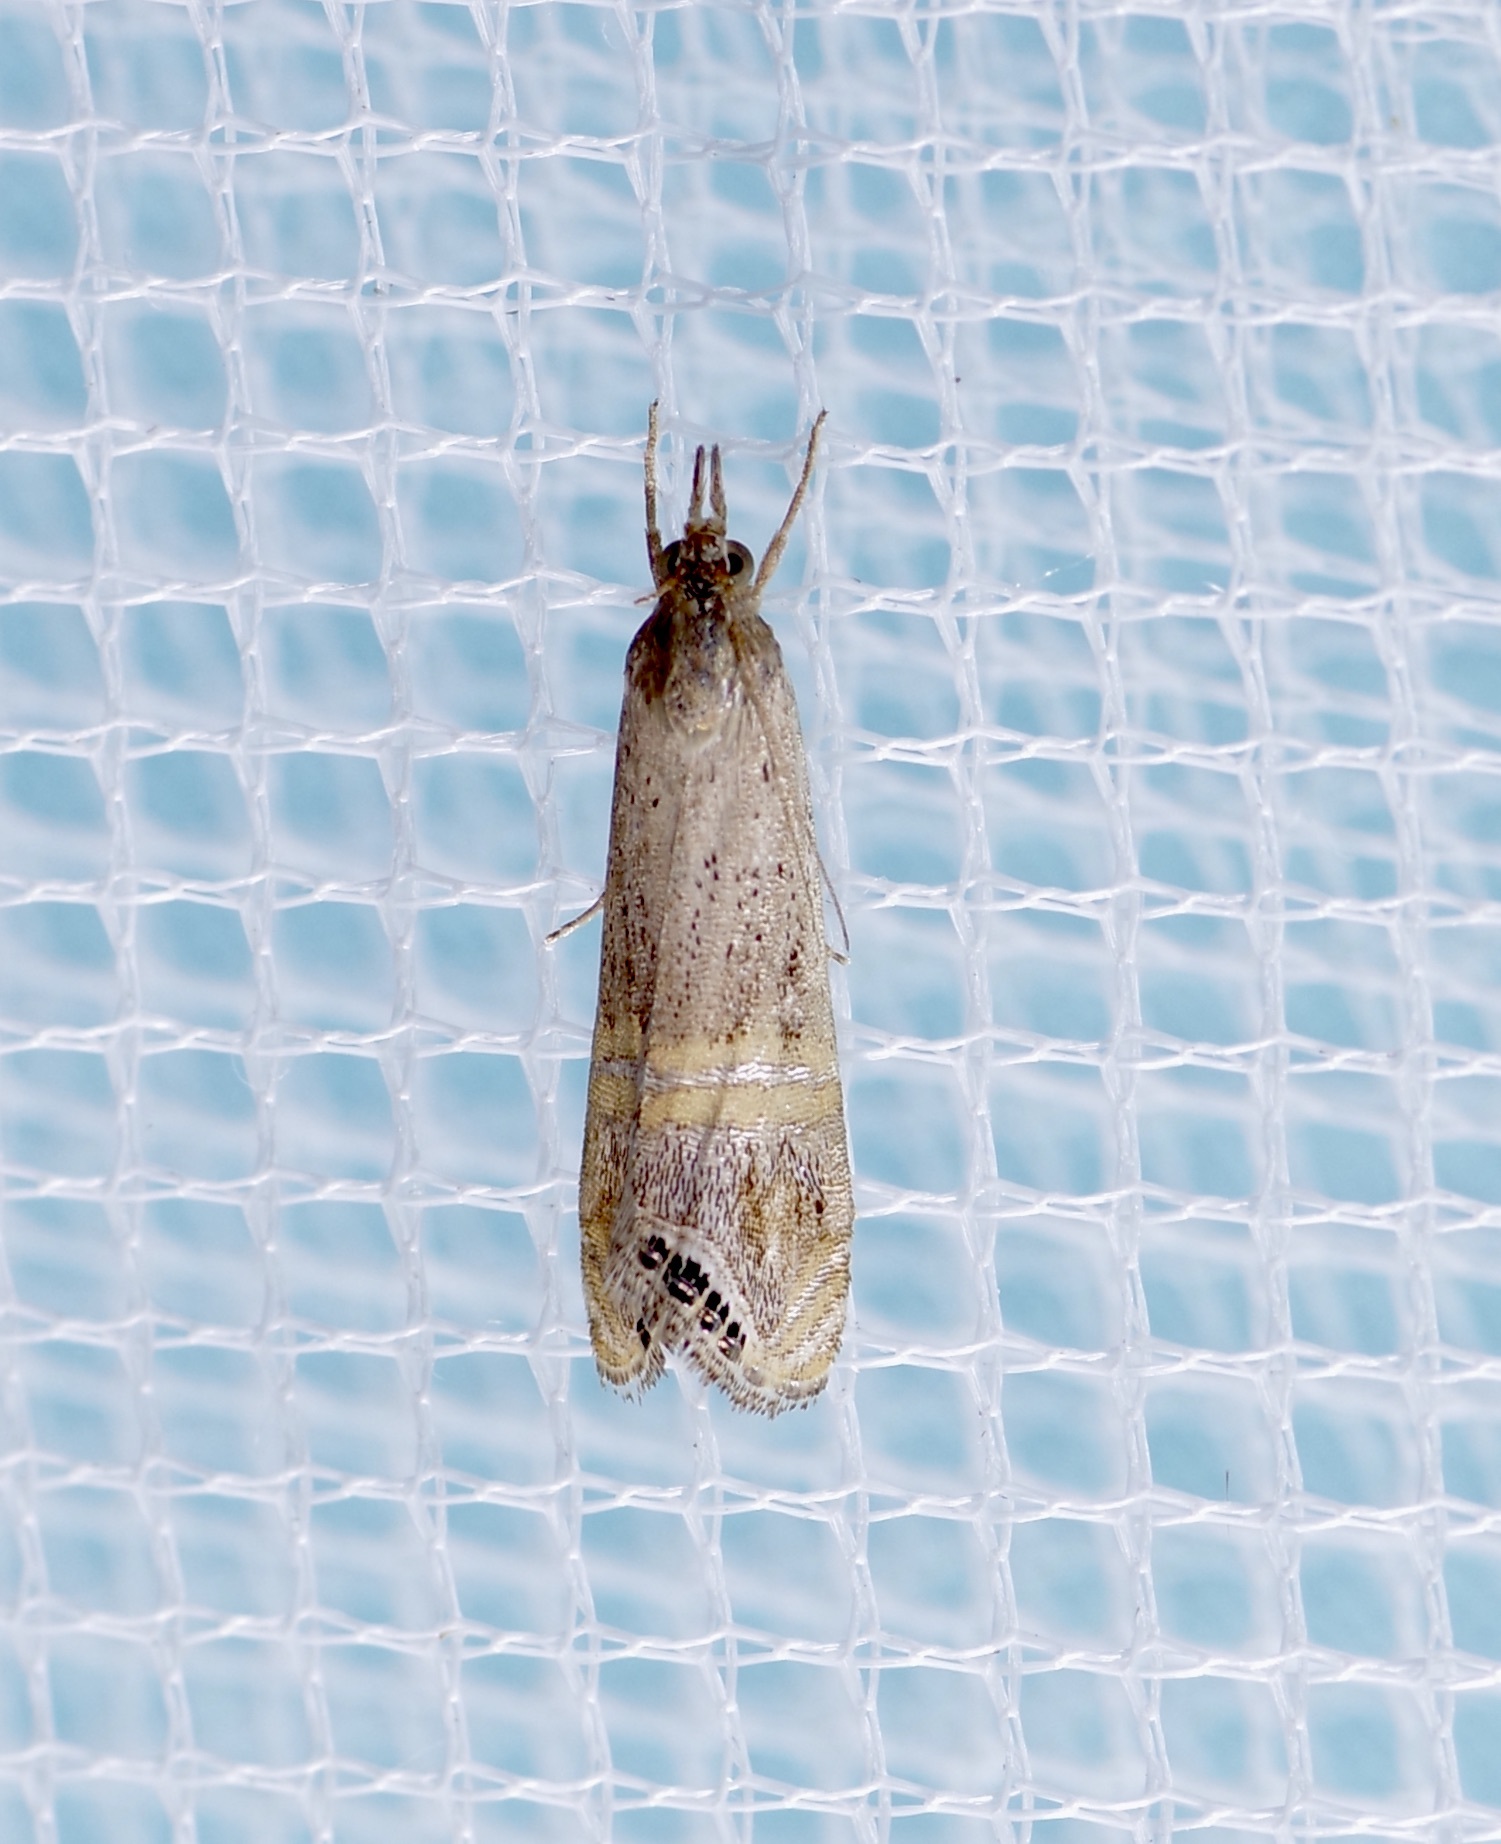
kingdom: Animalia
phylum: Arthropoda
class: Insecta
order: Lepidoptera
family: Crambidae
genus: Euchromius
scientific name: Euchromius ocellea
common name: Necklace veneer moth
